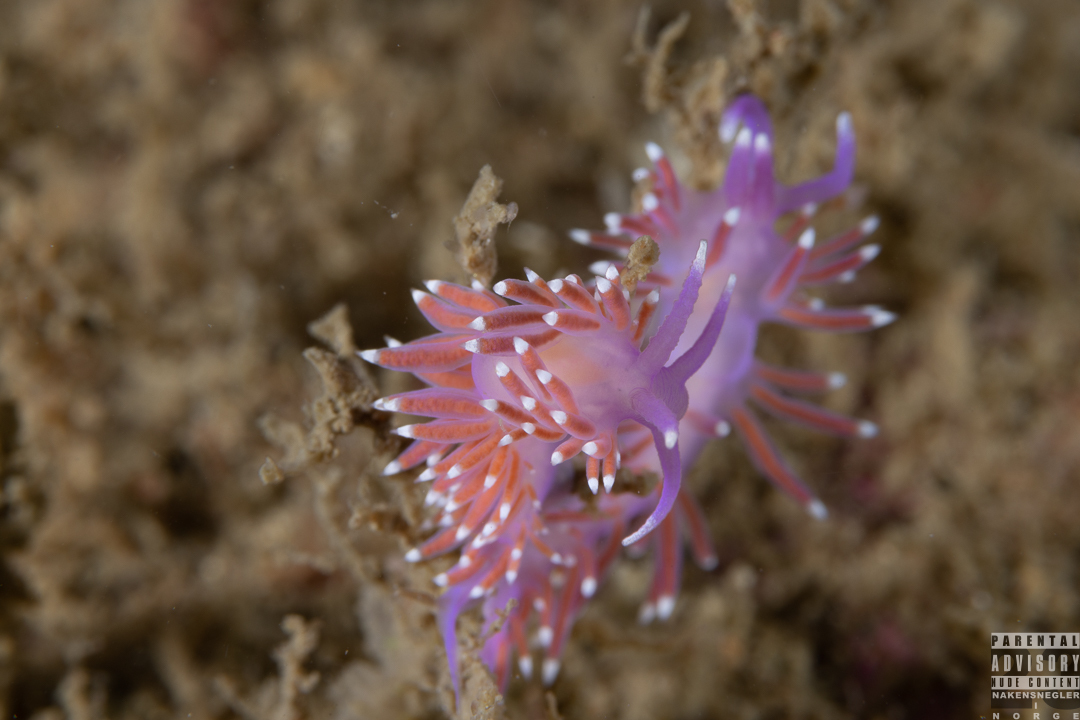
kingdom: Animalia
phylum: Mollusca
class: Gastropoda
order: Nudibranchia
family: Flabellinidae
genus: Edmundsella
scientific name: Edmundsella pedata
